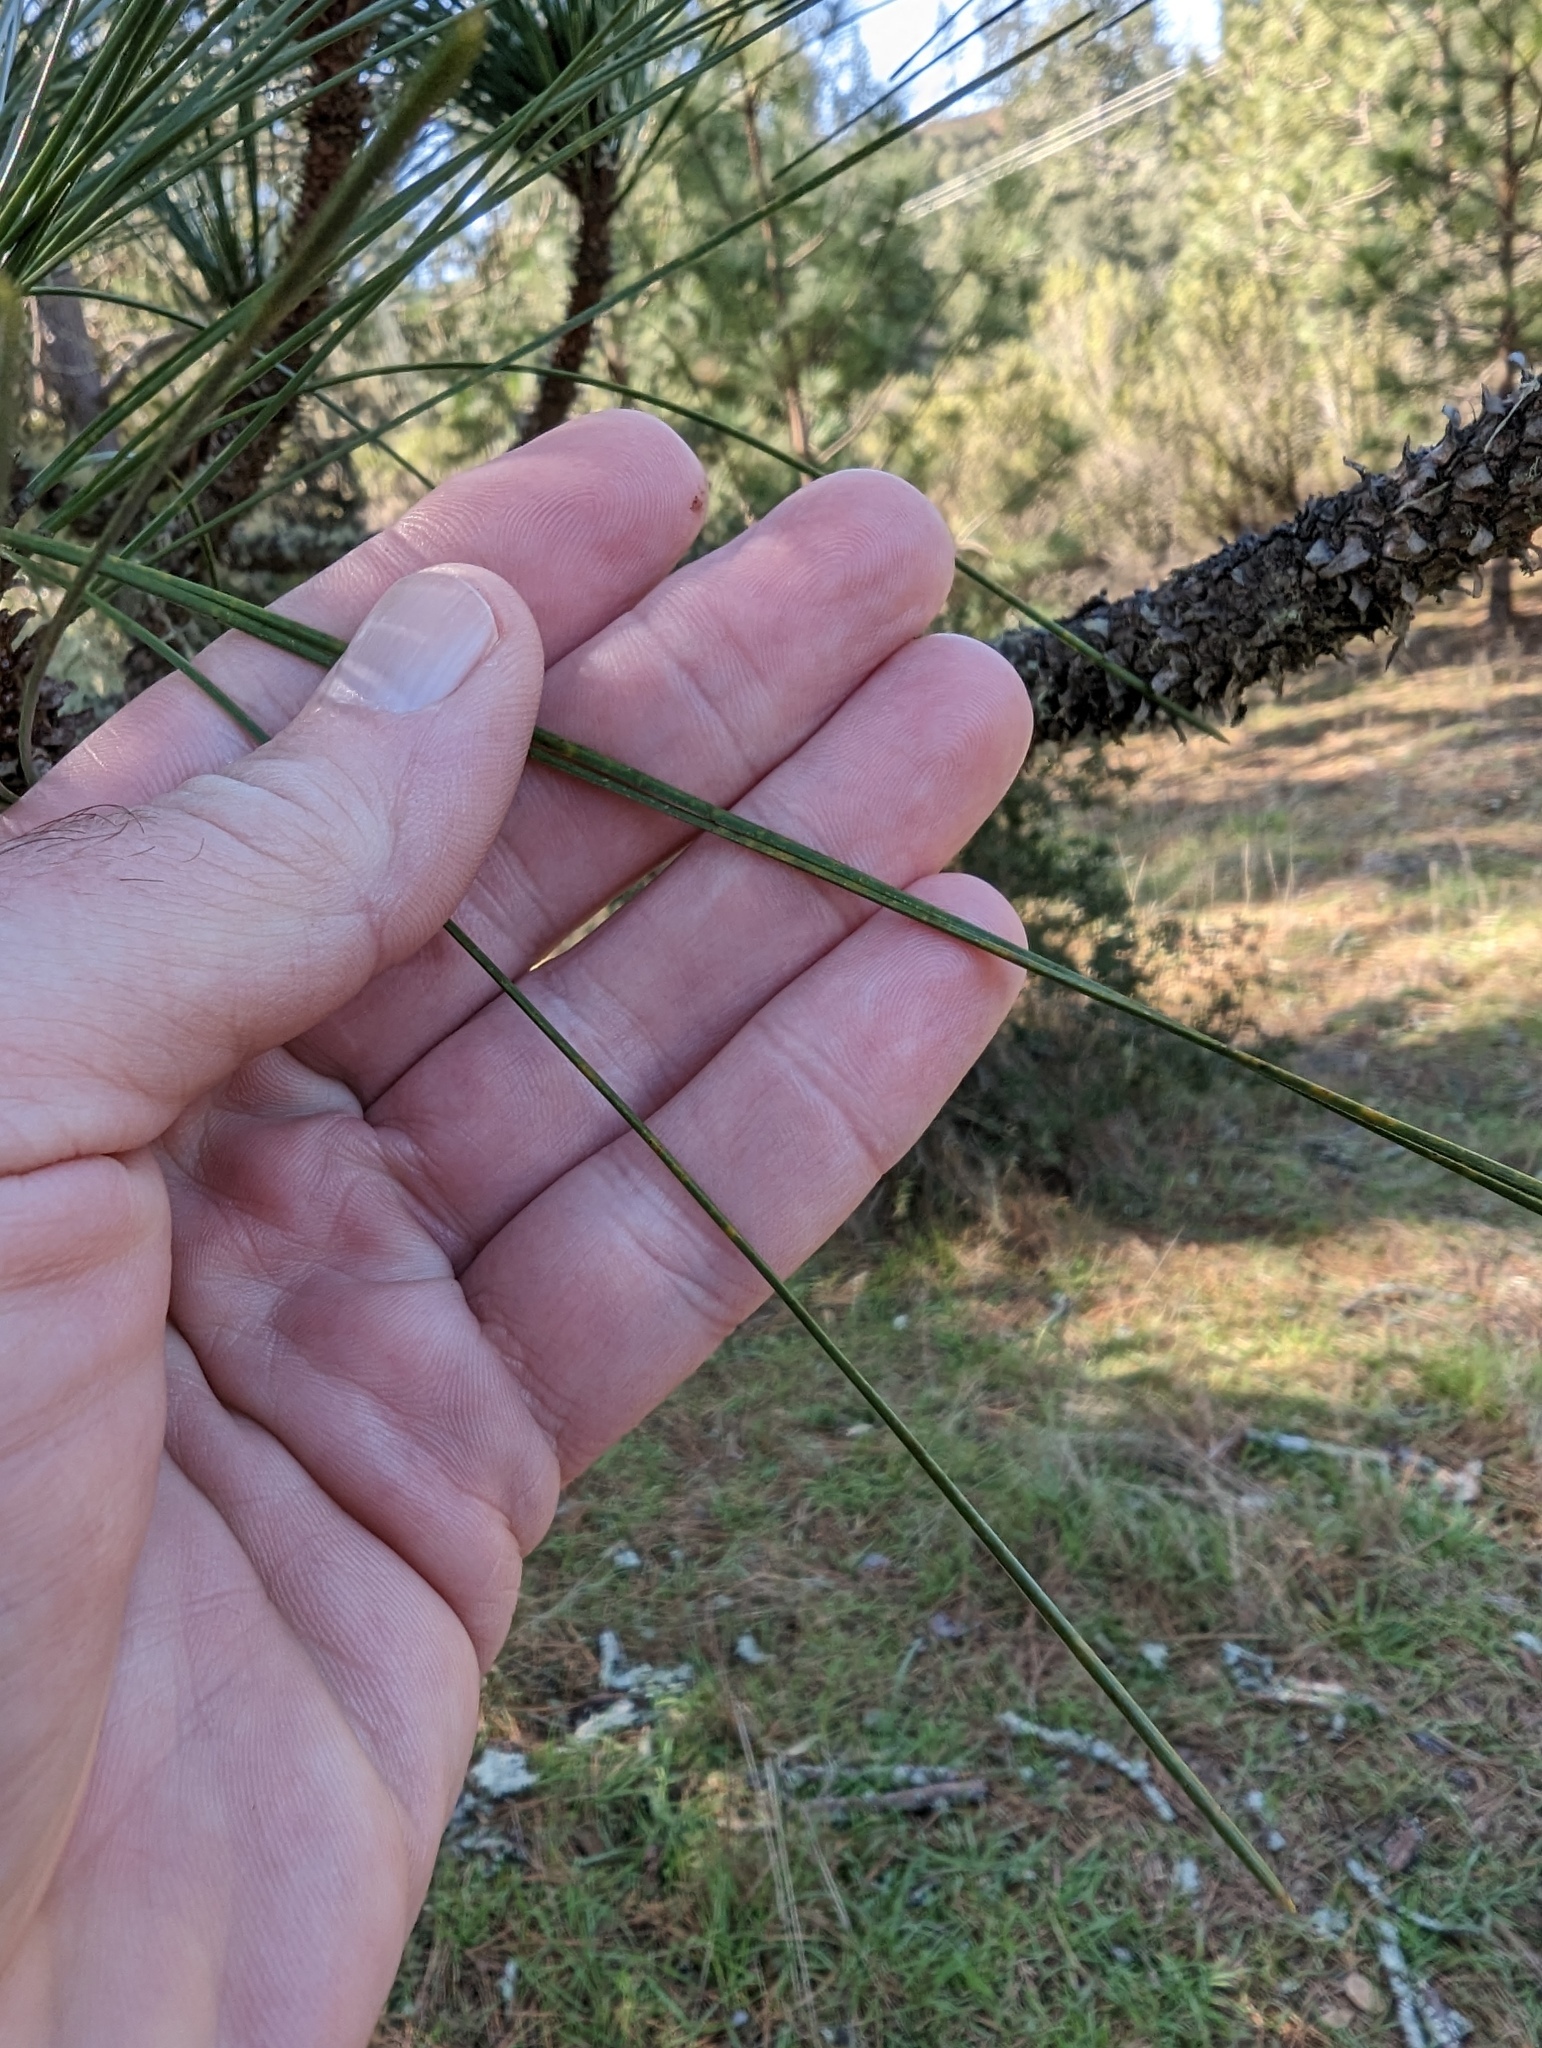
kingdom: Plantae
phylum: Tracheophyta
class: Pinopsida
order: Pinales
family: Pinaceae
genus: Pinus
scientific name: Pinus ponderosa
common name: Western yellow-pine
